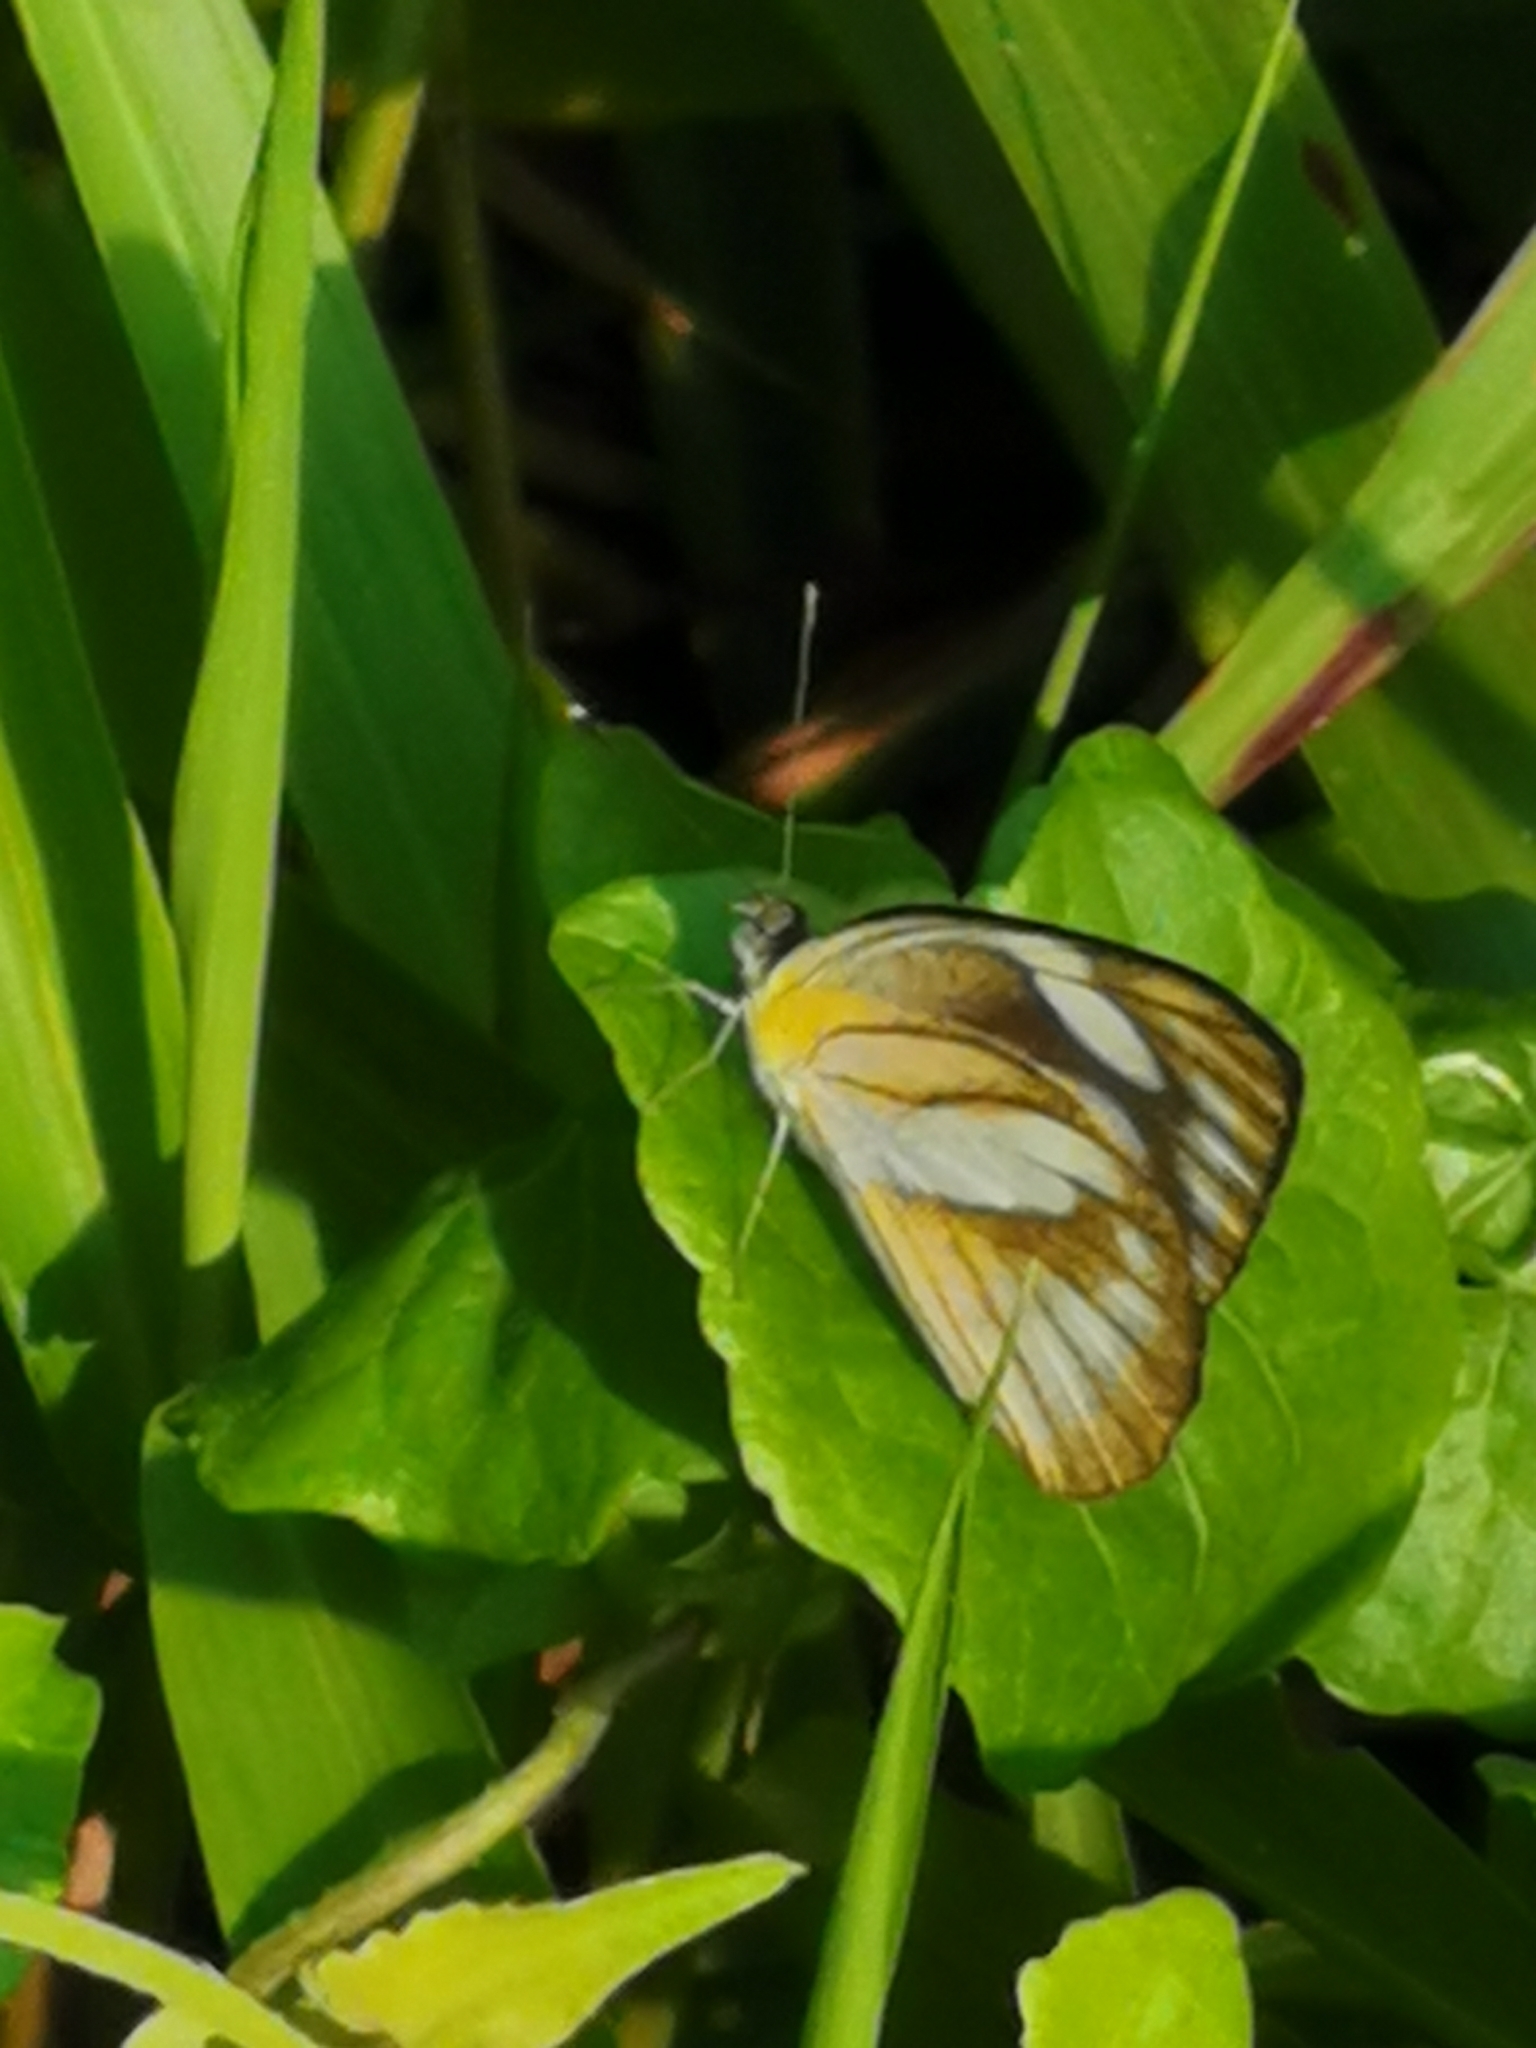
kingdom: Animalia
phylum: Arthropoda
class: Insecta
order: Lepidoptera
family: Pieridae
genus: Appias
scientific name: Appias libythea
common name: Striped albatross
